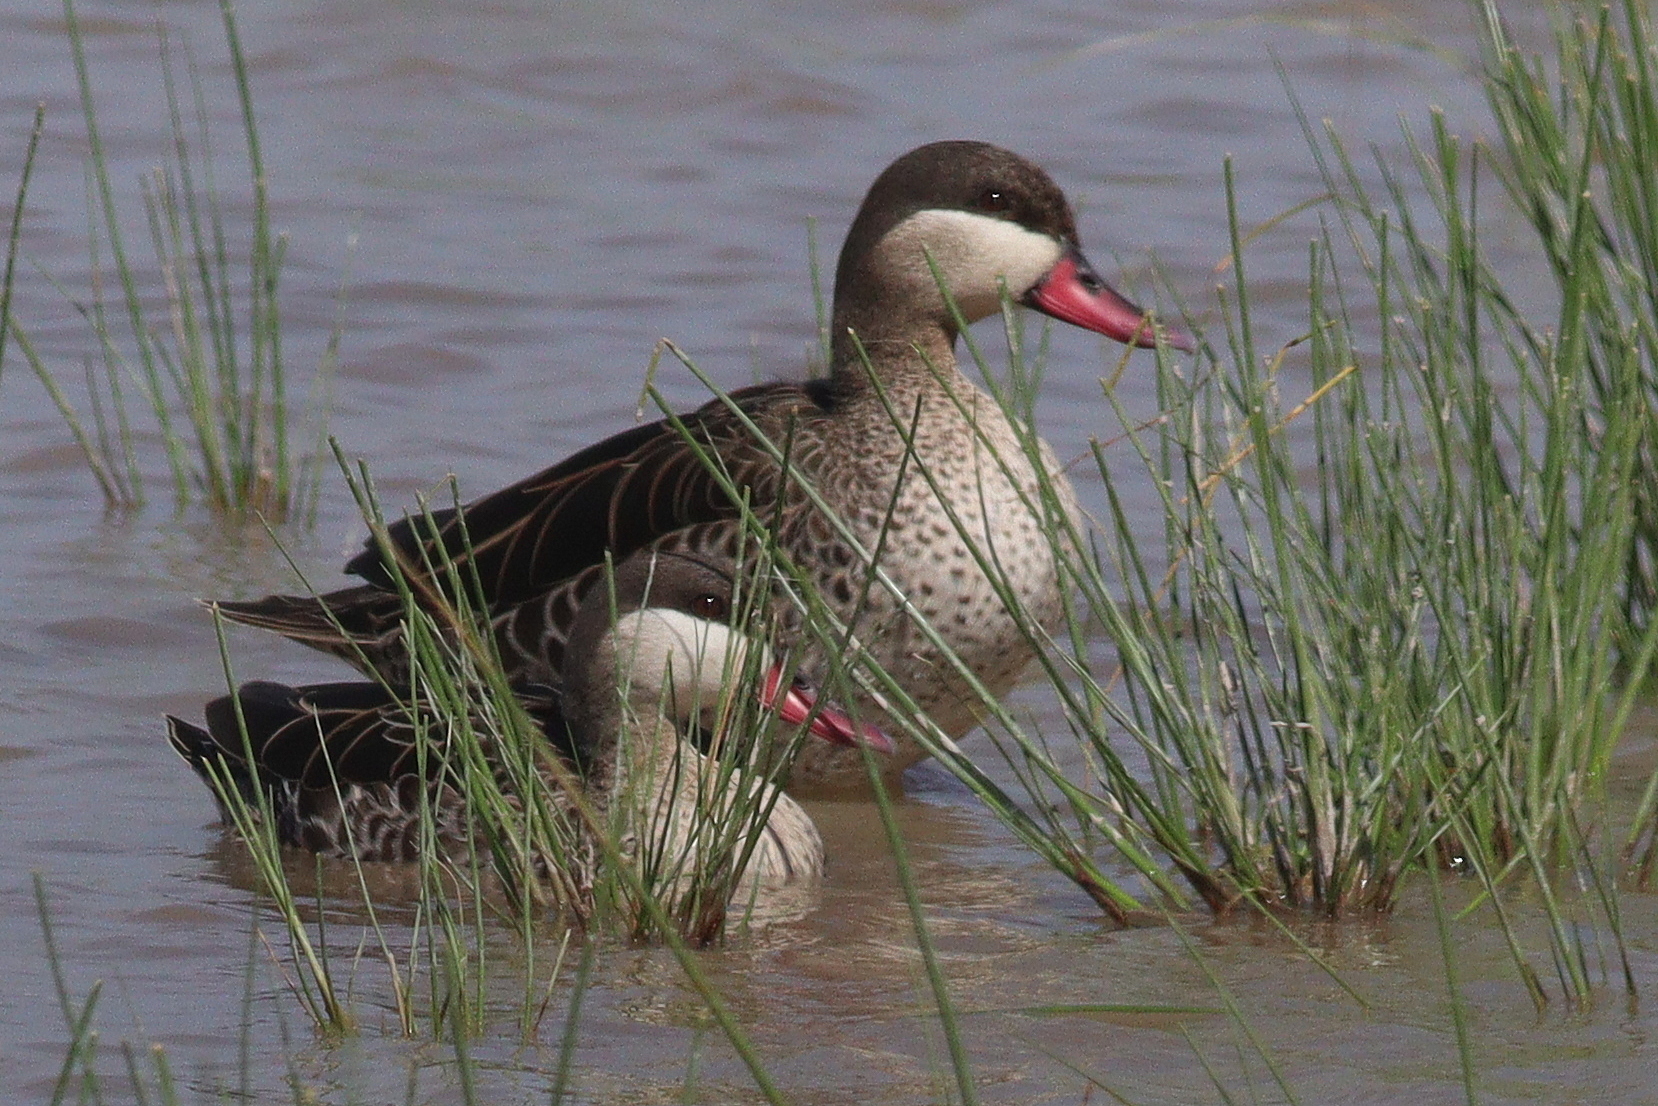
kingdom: Animalia
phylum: Chordata
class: Aves
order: Anseriformes
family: Anatidae
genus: Anas
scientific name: Anas erythrorhyncha
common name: Red-billed teal
